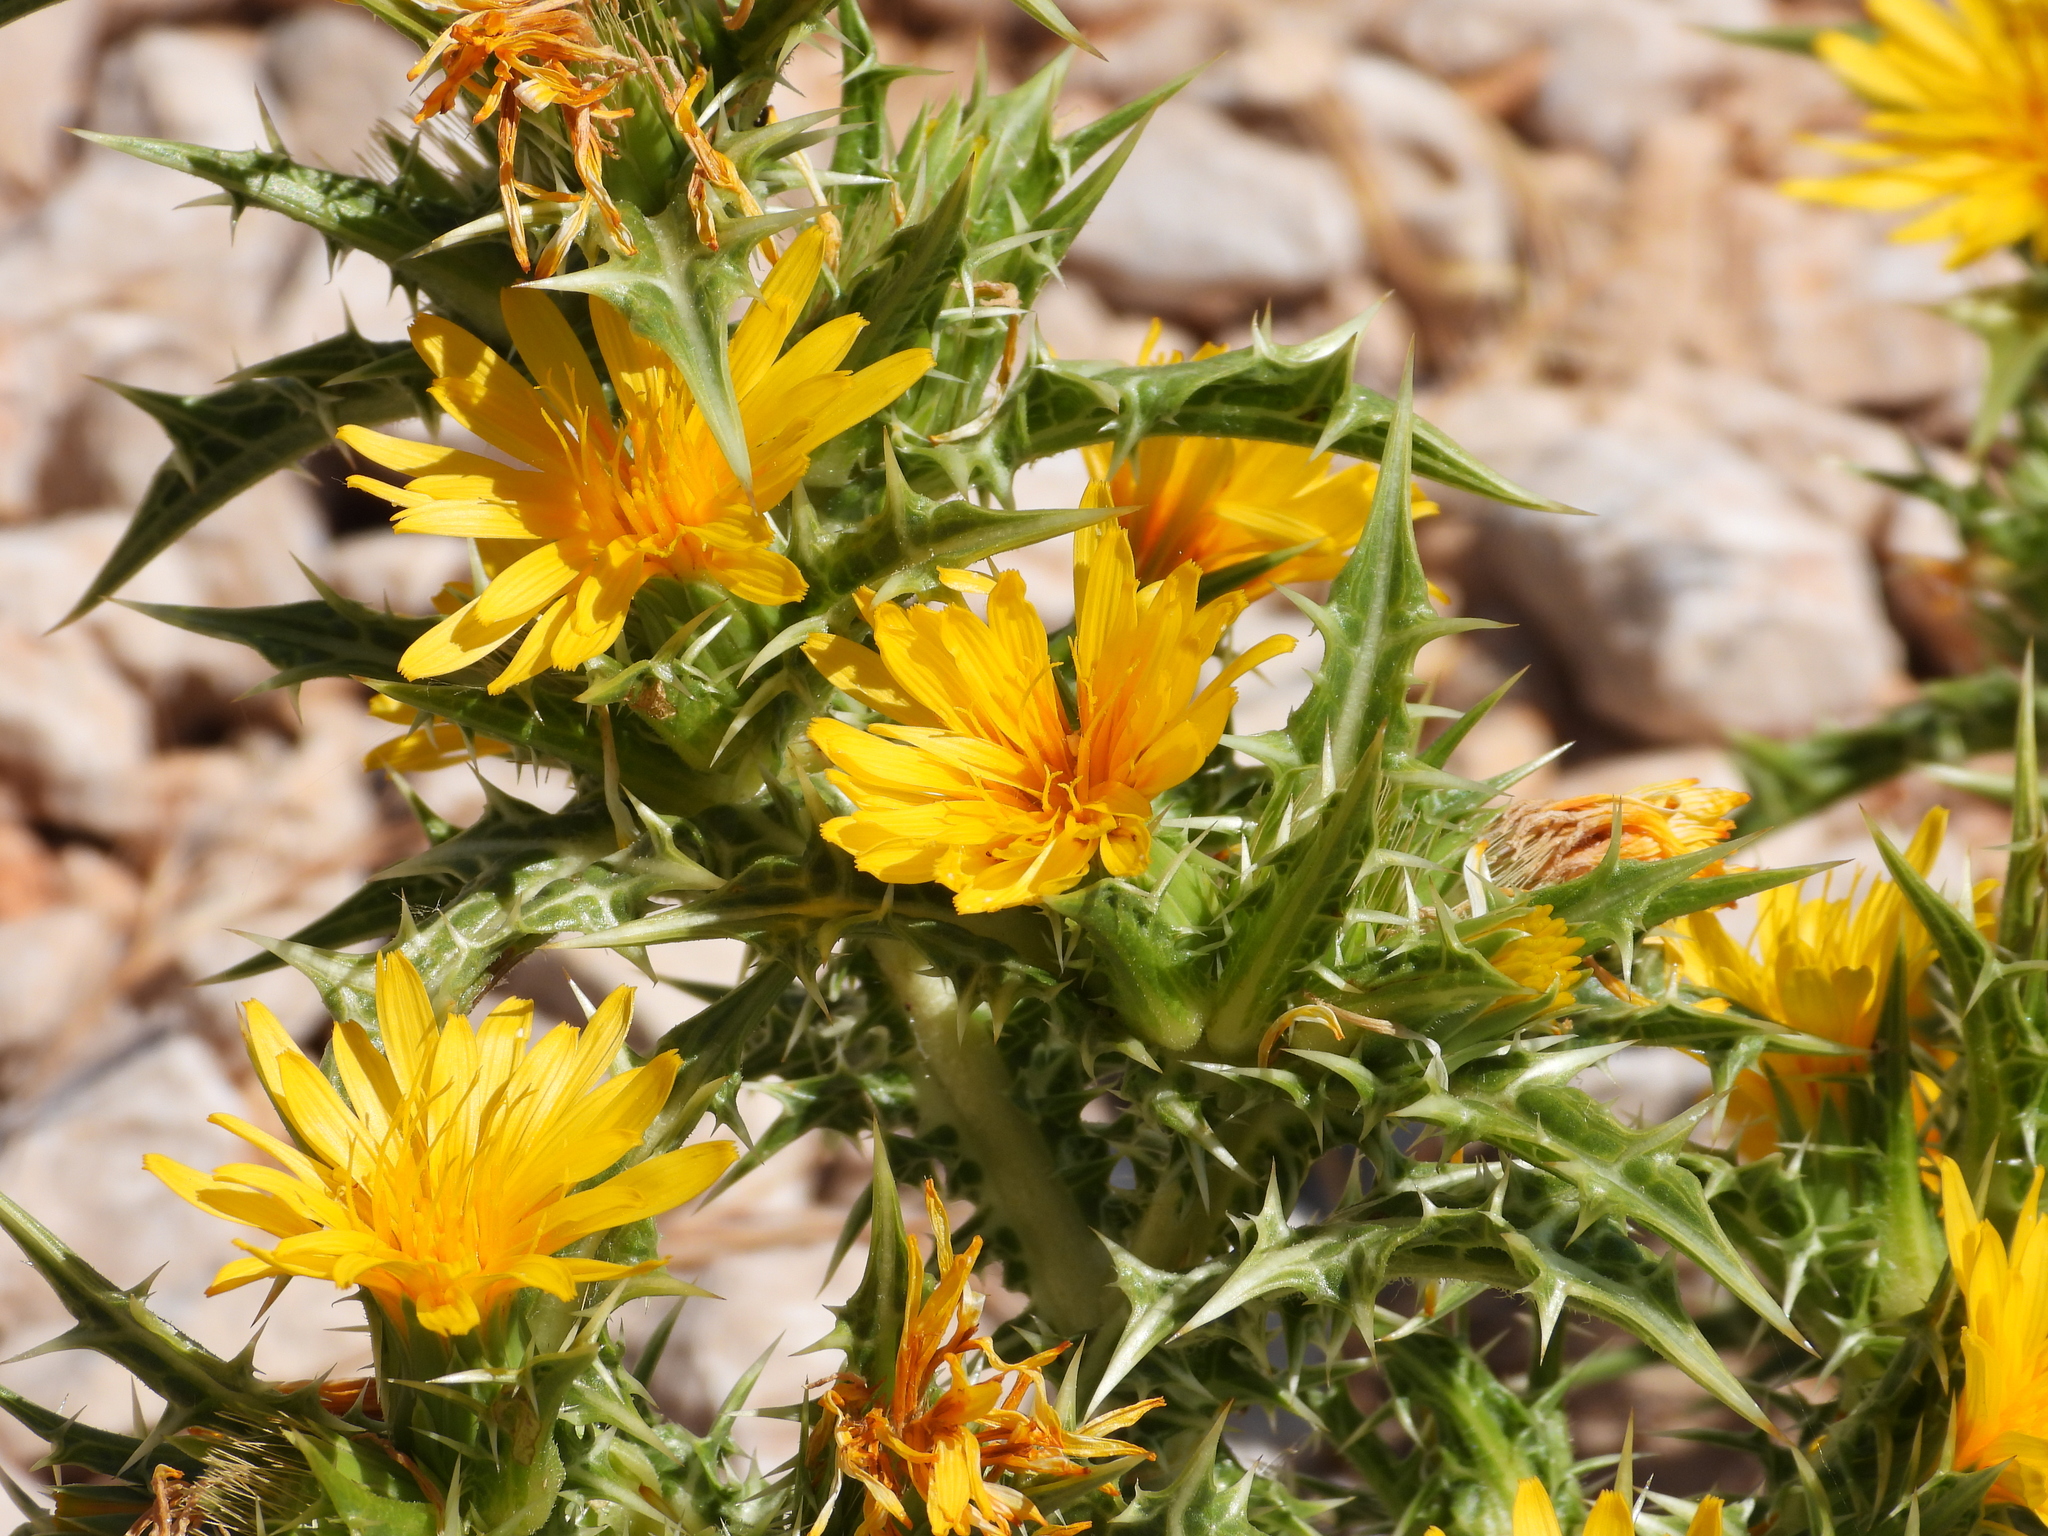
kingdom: Plantae
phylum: Tracheophyta
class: Magnoliopsida
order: Asterales
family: Asteraceae
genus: Scolymus
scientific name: Scolymus hispanicus
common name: Golden thistle
